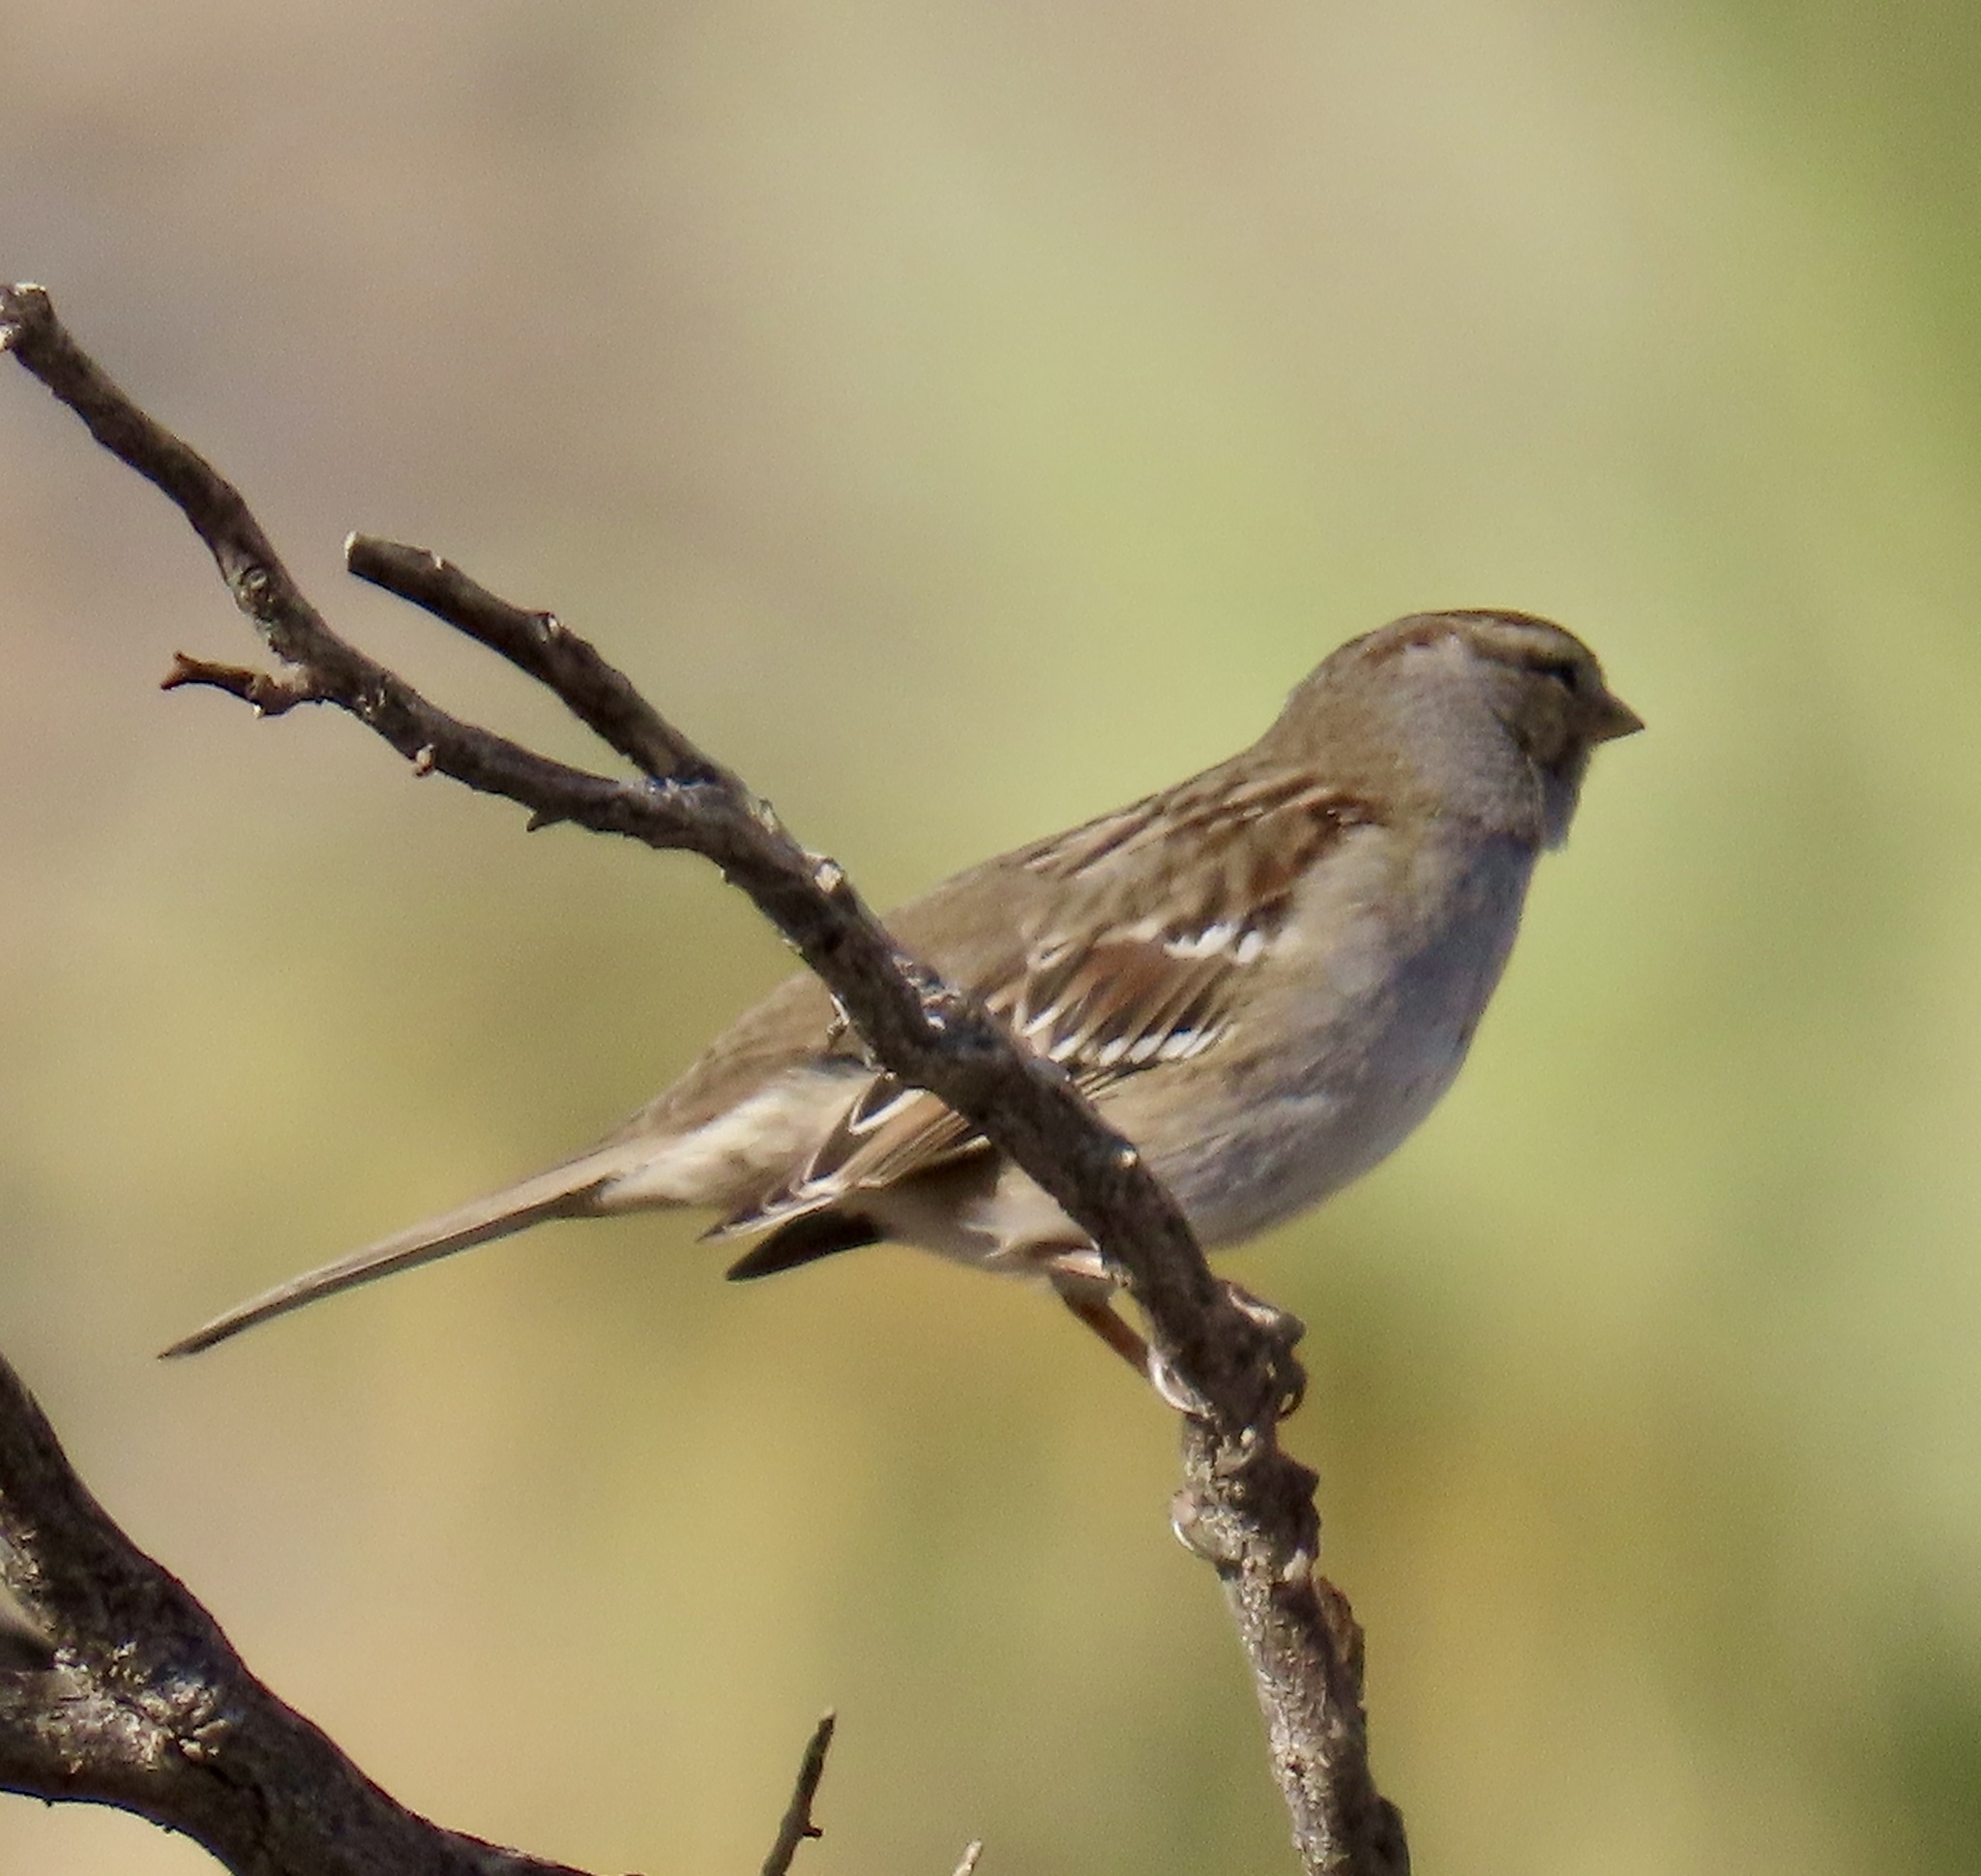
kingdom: Animalia
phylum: Chordata
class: Aves
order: Passeriformes
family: Passerellidae
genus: Zonotrichia
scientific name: Zonotrichia leucophrys
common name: White-crowned sparrow
